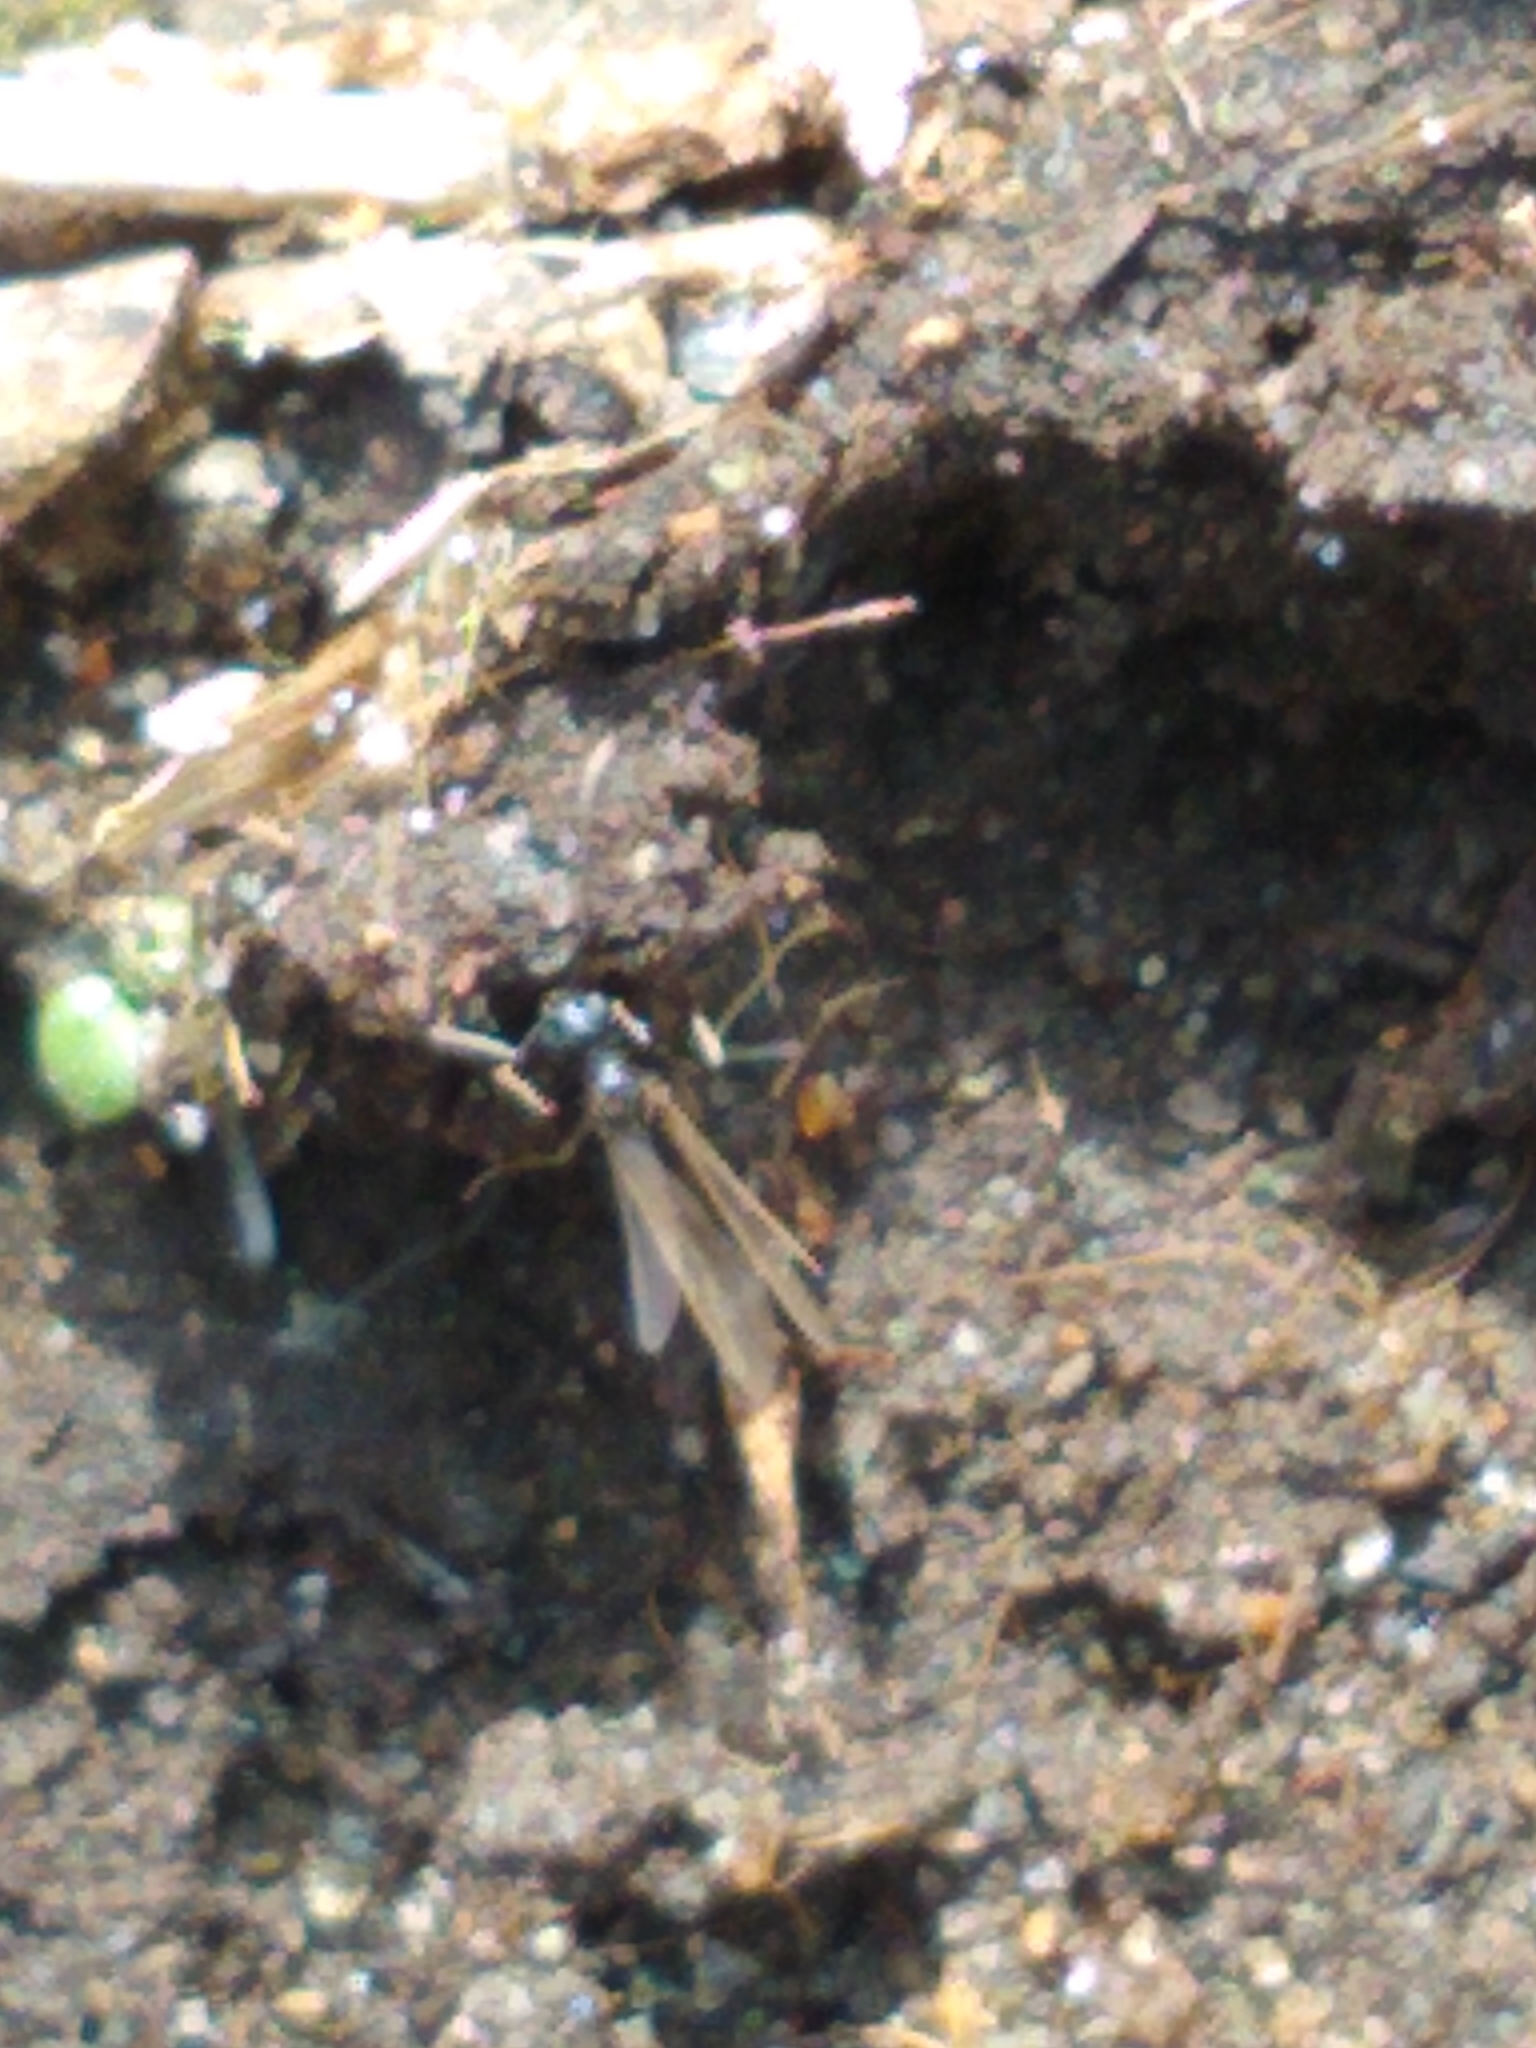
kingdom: Animalia
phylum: Arthropoda
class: Insecta
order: Hymenoptera
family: Formicidae
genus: Prenolepis
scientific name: Prenolepis imparis
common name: Small honey ant
